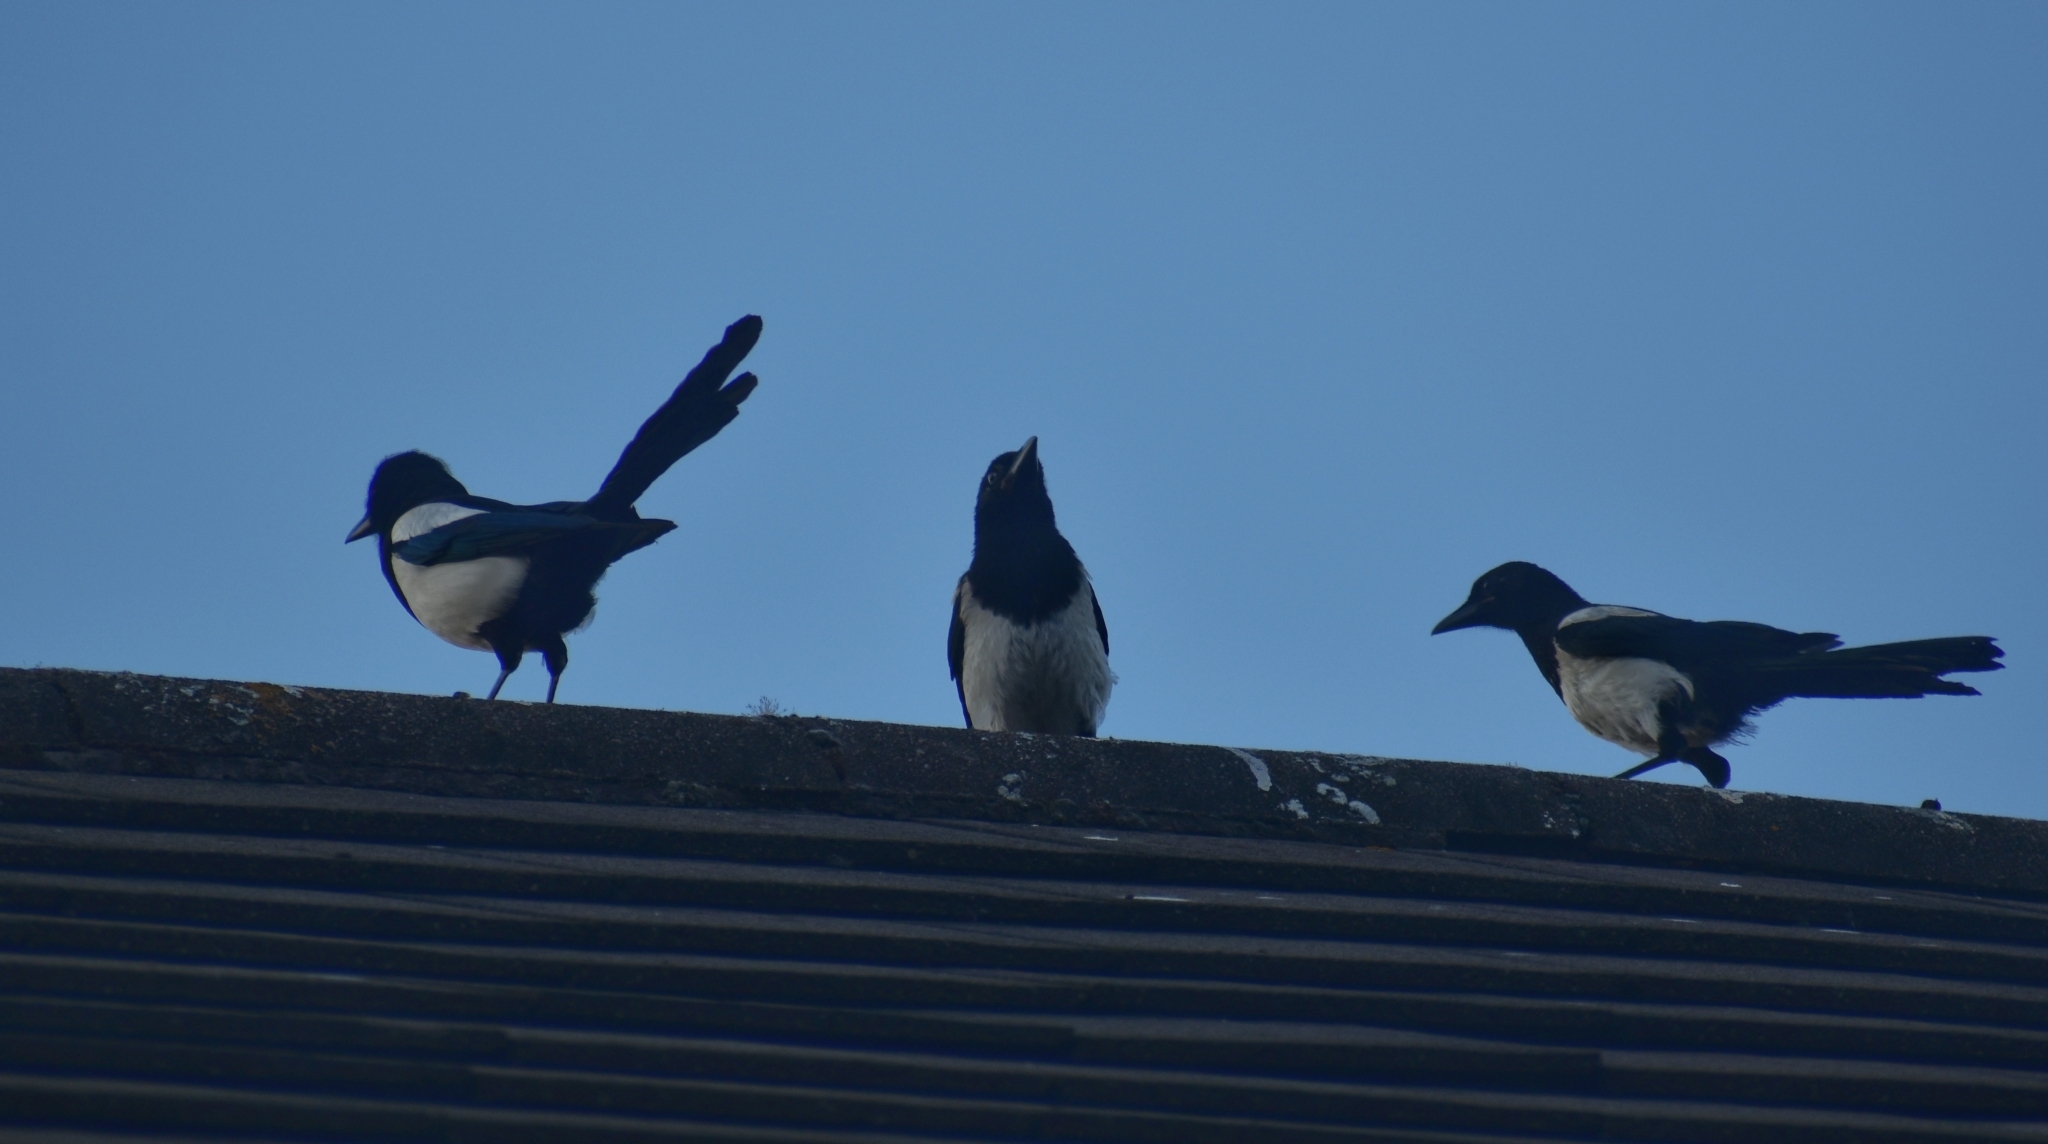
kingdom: Animalia
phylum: Chordata
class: Aves
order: Passeriformes
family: Corvidae
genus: Pica
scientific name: Pica pica
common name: Eurasian magpie
